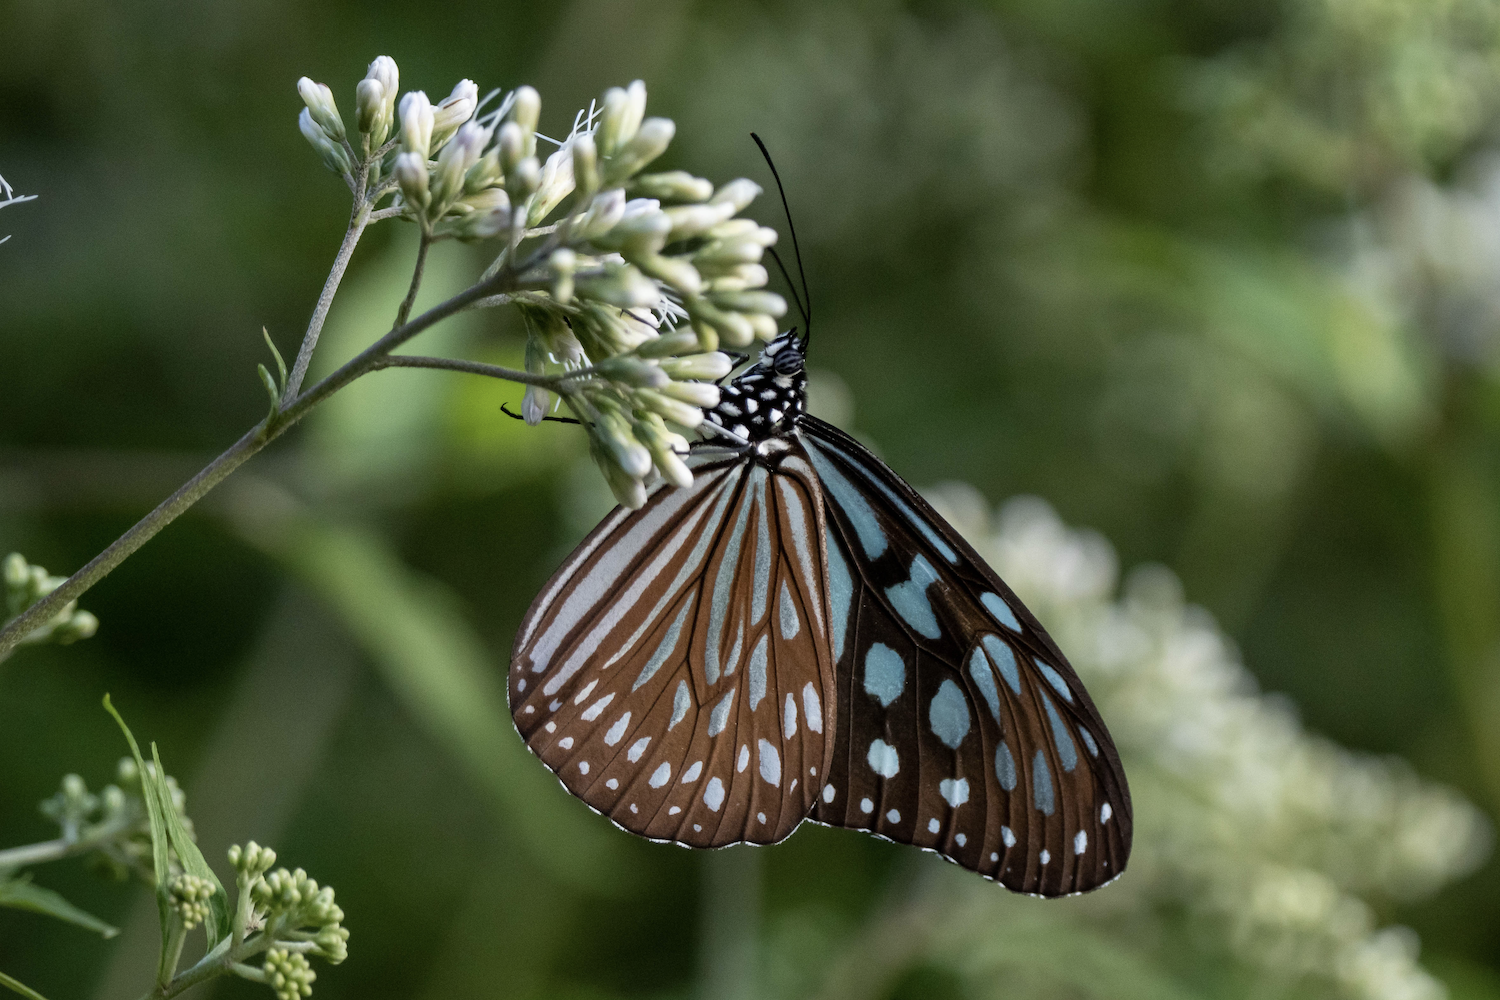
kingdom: Animalia
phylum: Arthropoda
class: Insecta
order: Lepidoptera
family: Nymphalidae
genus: Ideopsis
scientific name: Ideopsis similis
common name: Ceylon blue glassy tiger
